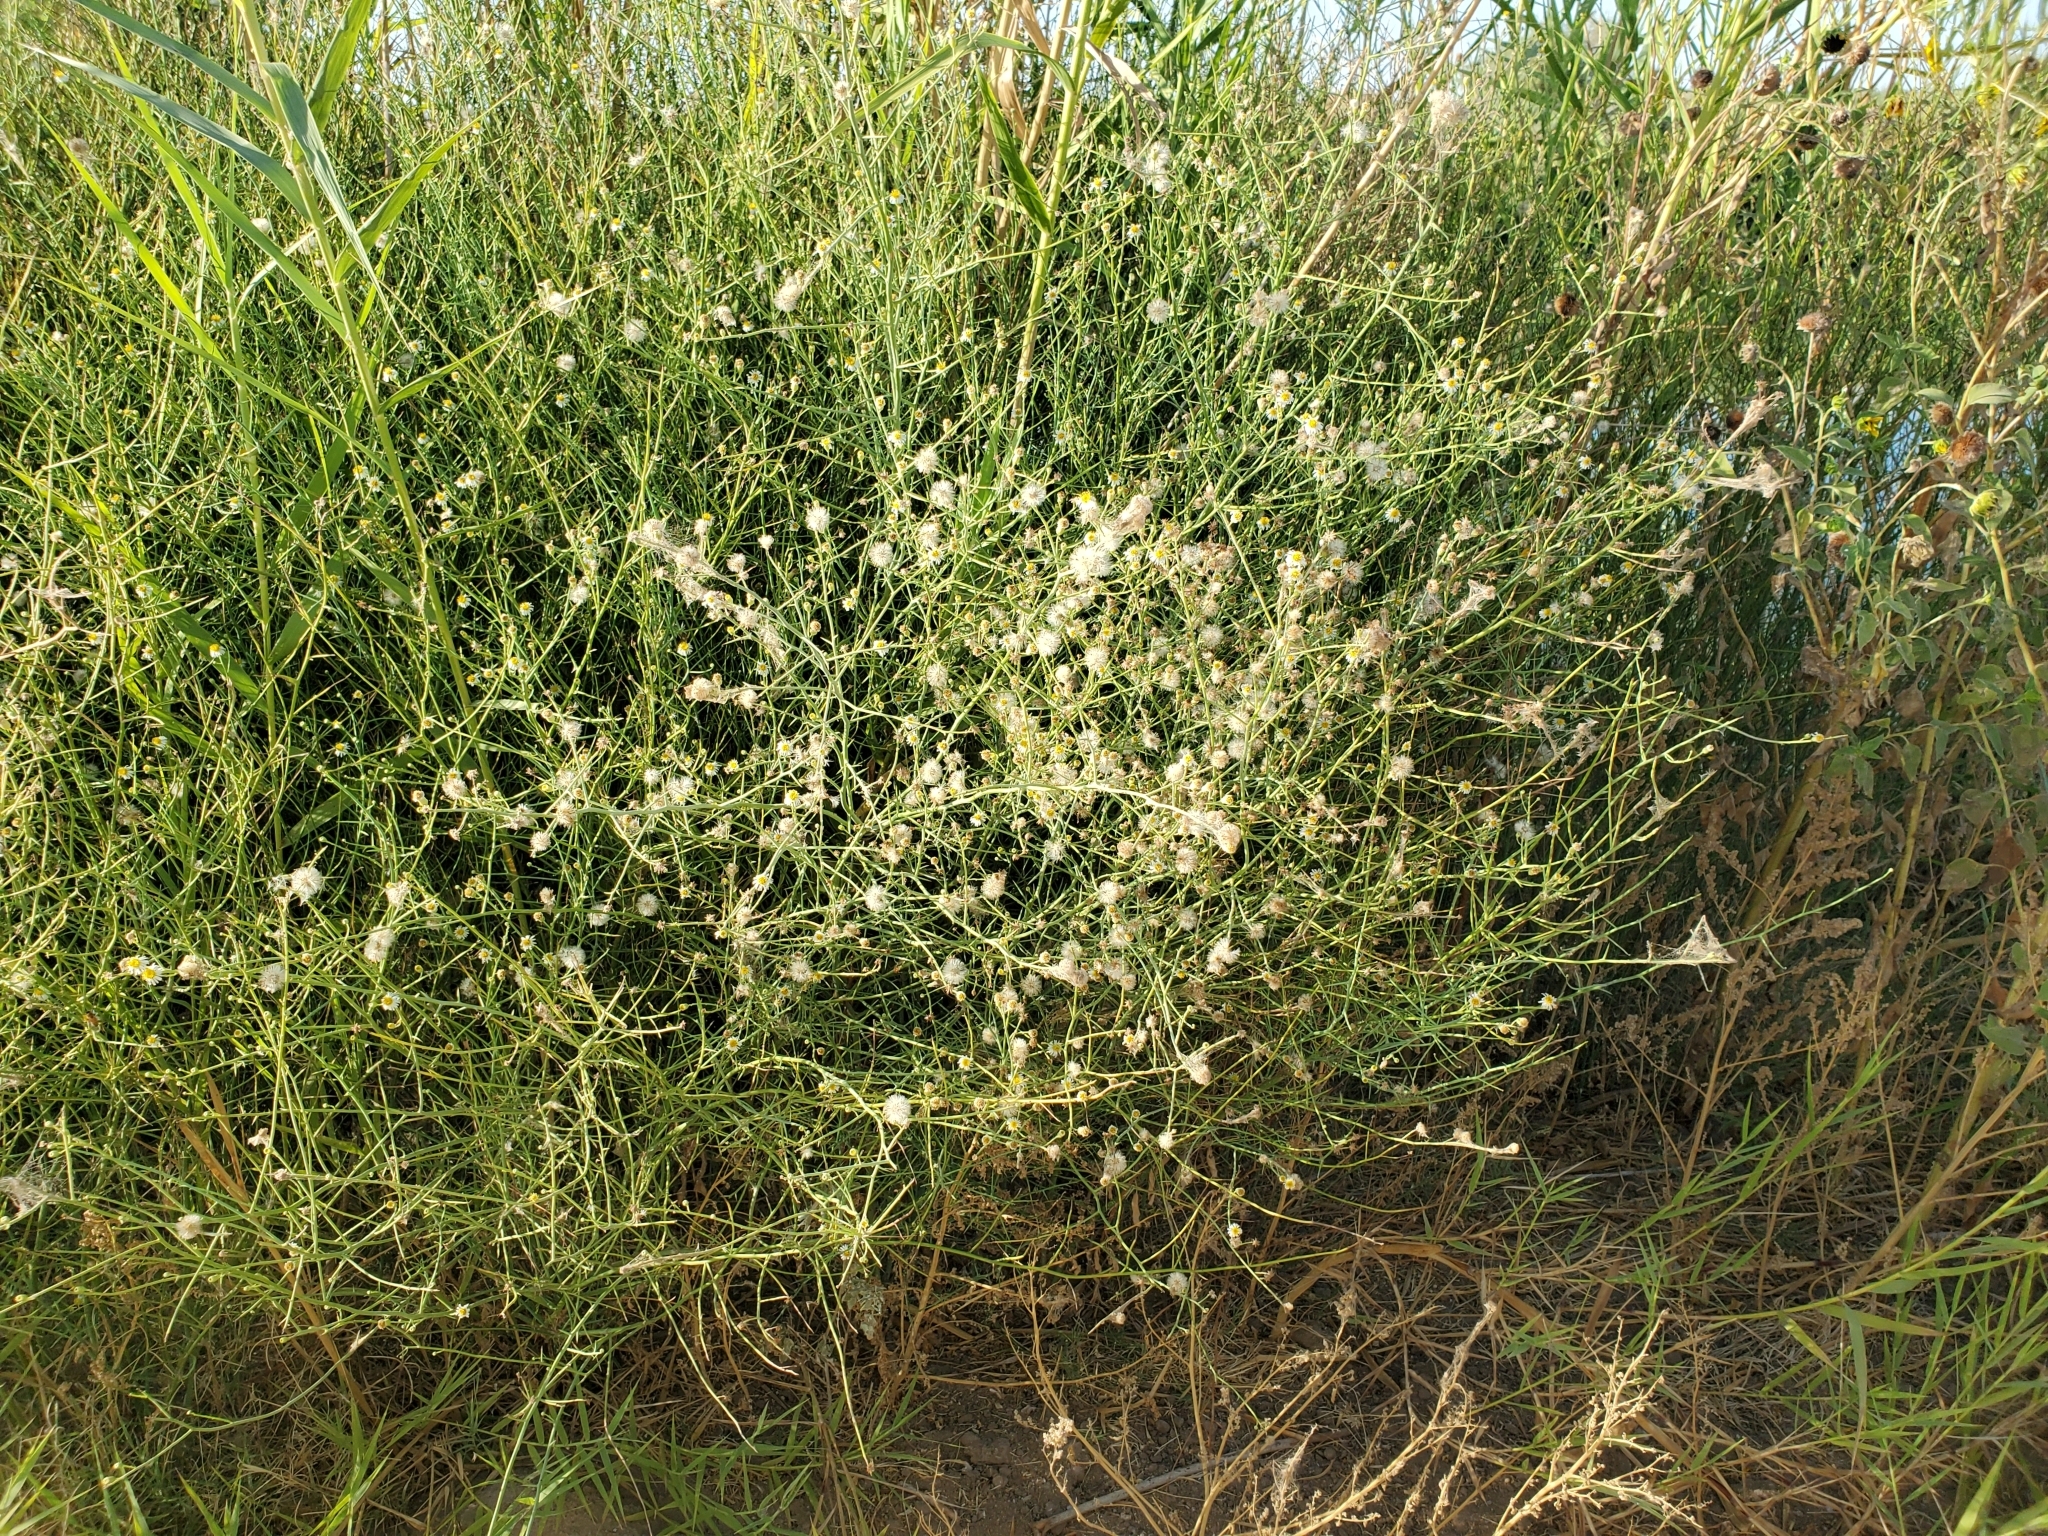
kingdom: Plantae
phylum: Tracheophyta
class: Magnoliopsida
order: Asterales
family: Asteraceae
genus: Chloracantha
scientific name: Chloracantha spinosa
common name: Mexican devilweed
